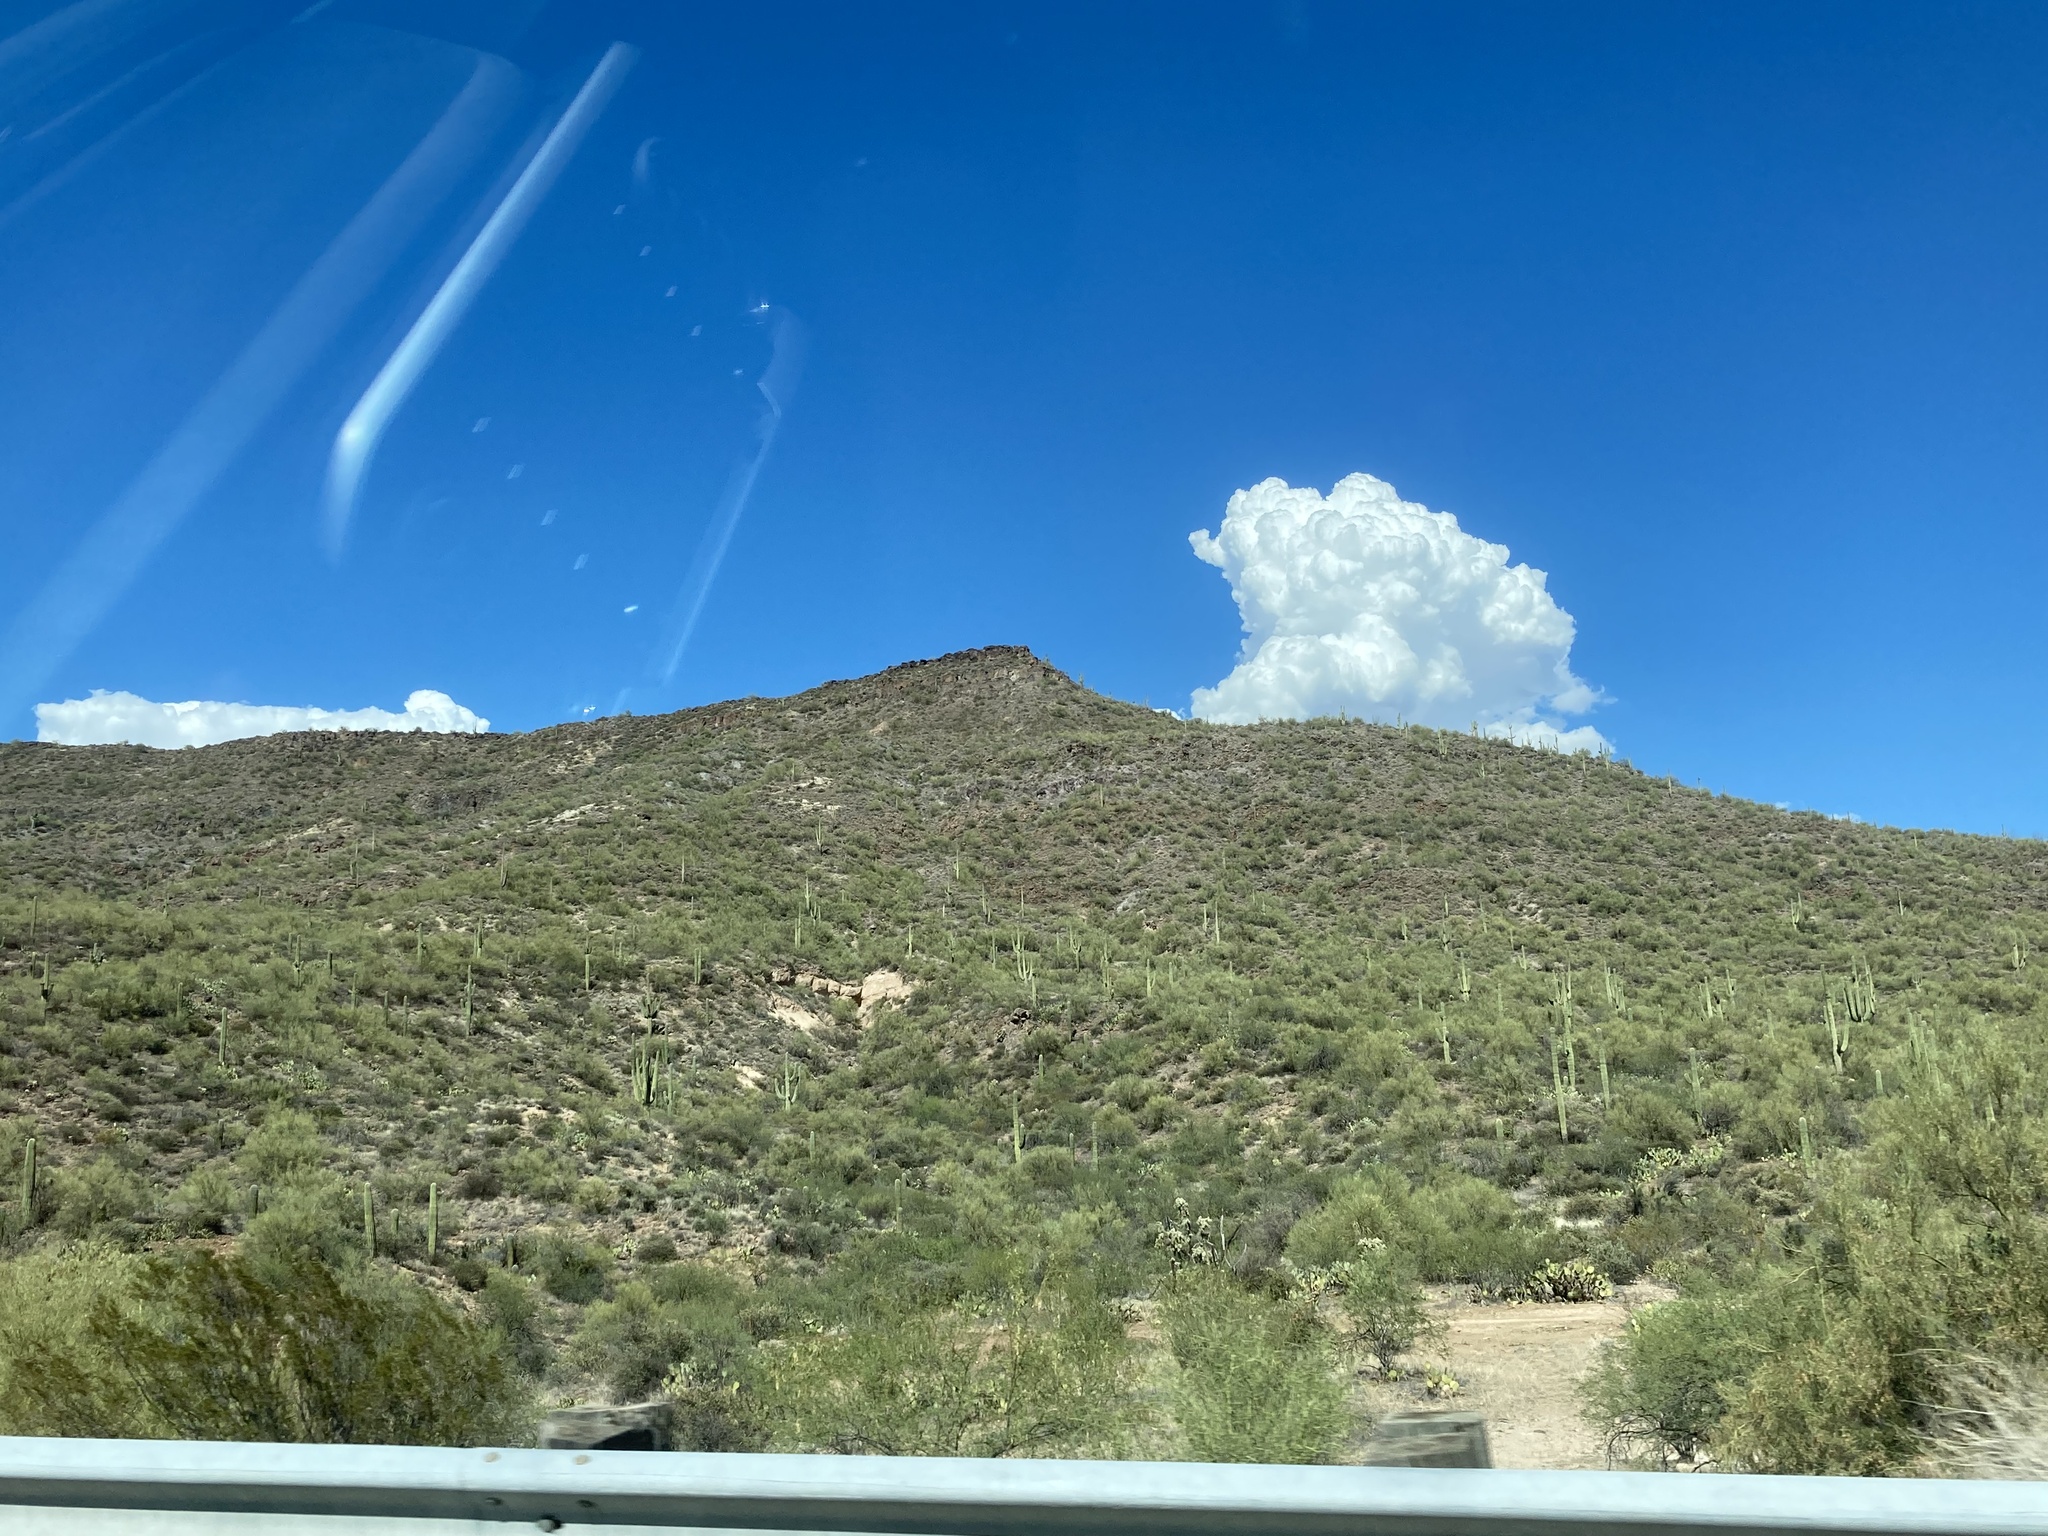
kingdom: Plantae
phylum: Tracheophyta
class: Magnoliopsida
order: Caryophyllales
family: Cactaceae
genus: Carnegiea
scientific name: Carnegiea gigantea
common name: Saguaro
